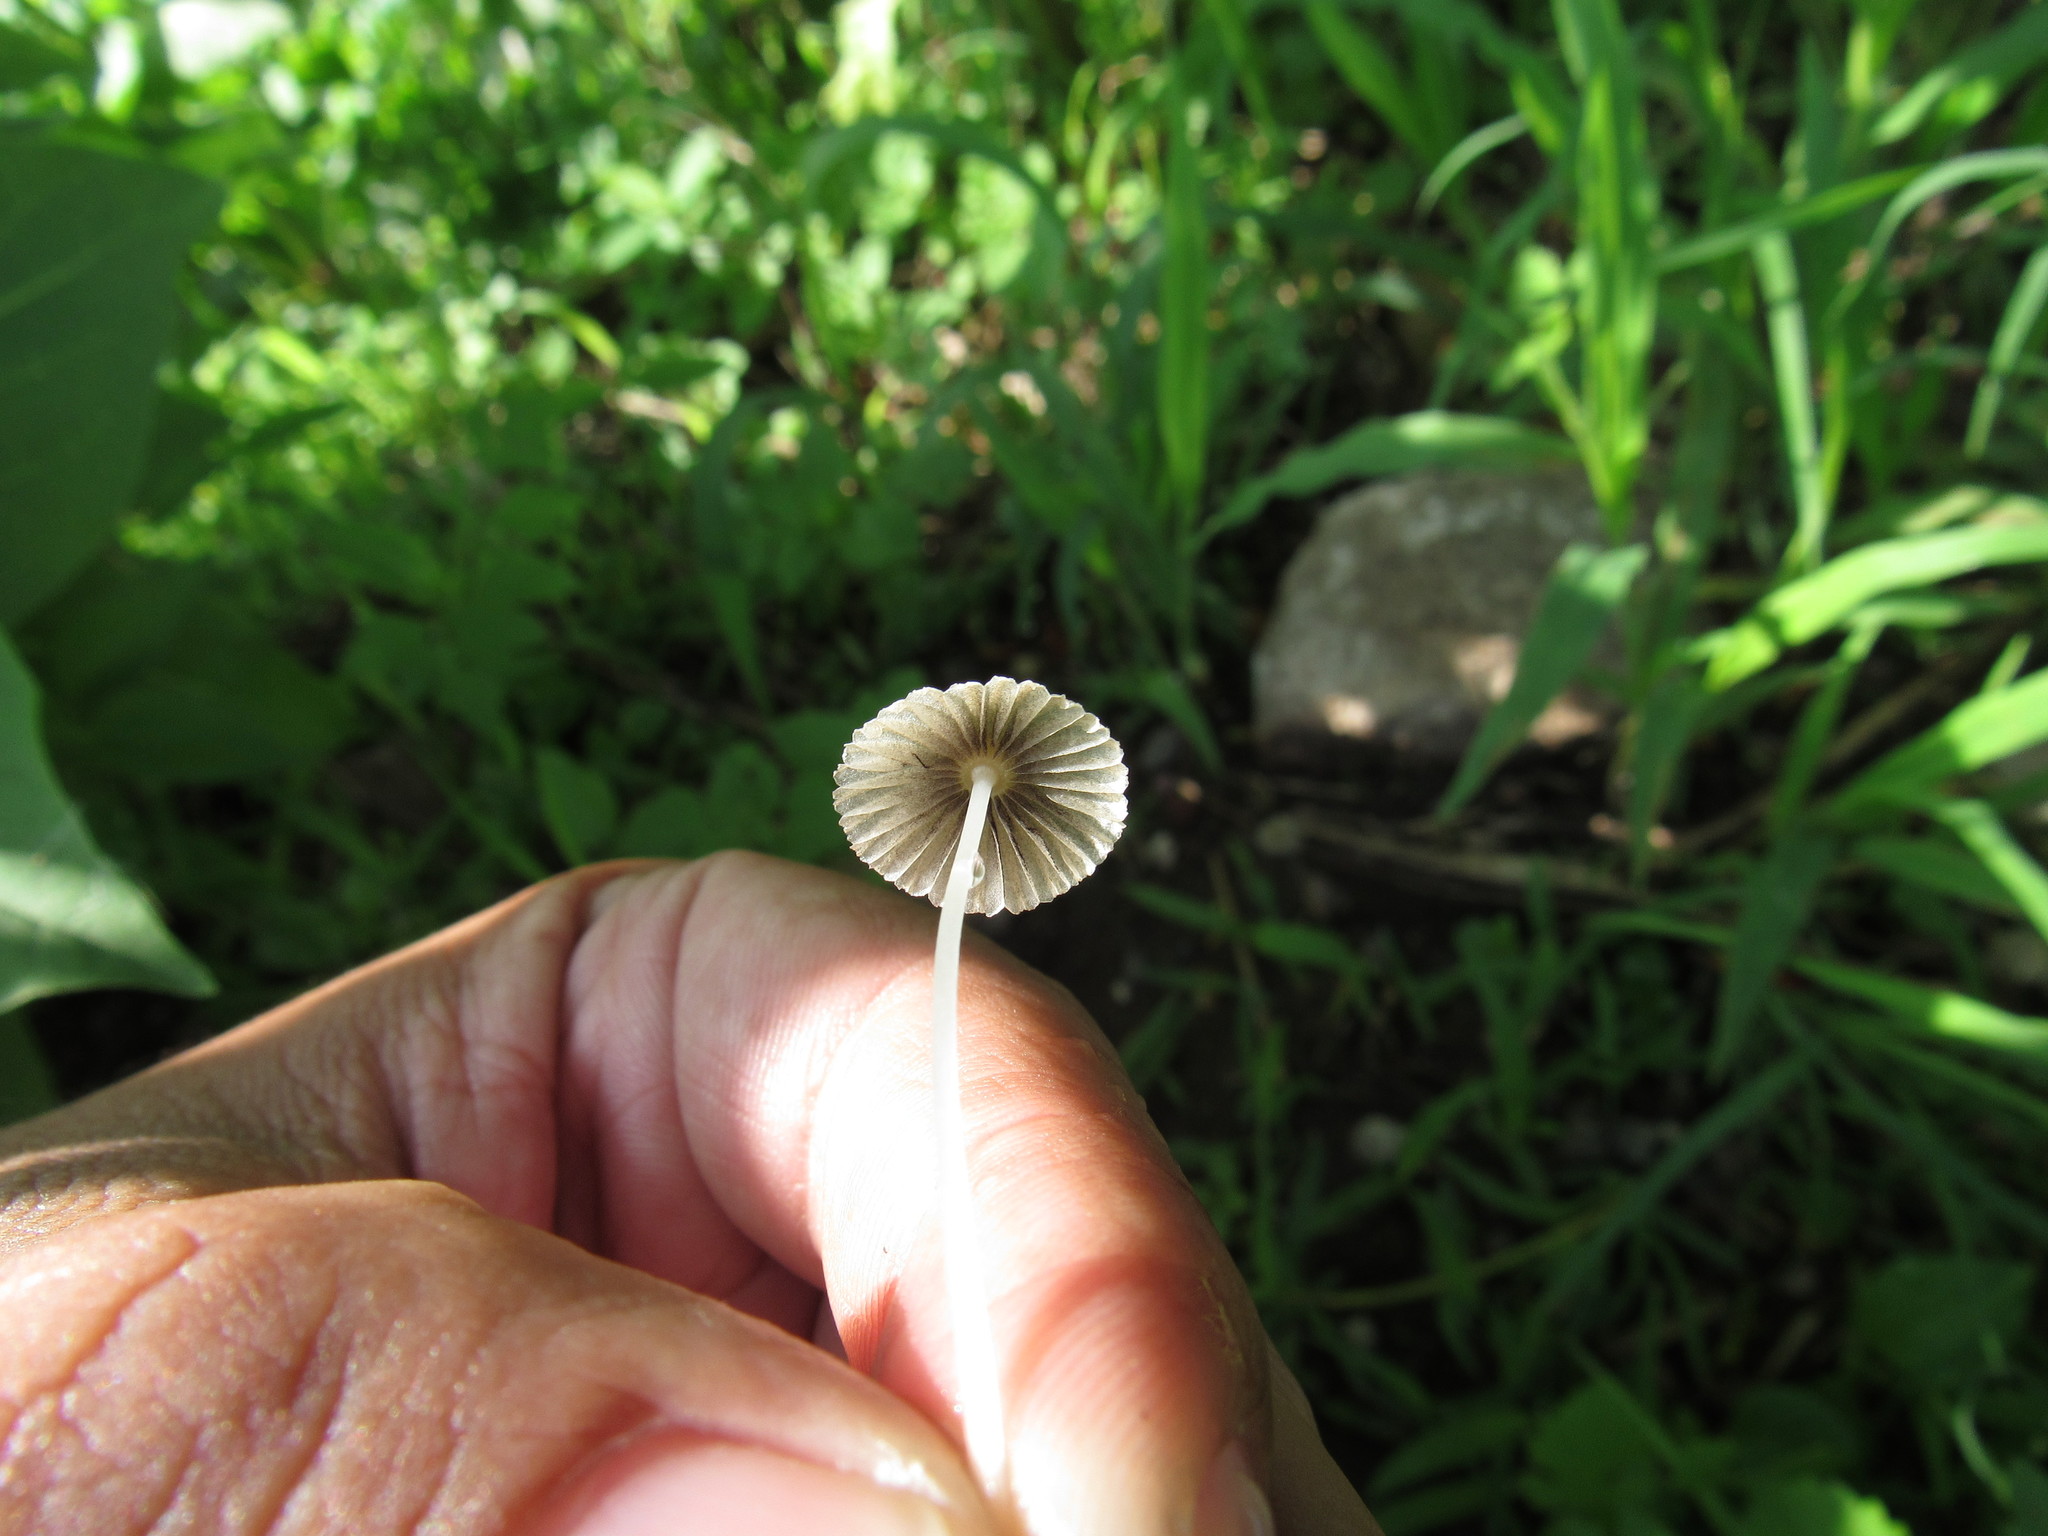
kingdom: Fungi
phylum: Basidiomycota
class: Agaricomycetes
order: Agaricales
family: Psathyrellaceae
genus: Parasola
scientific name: Parasola plicatilis
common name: Pleated inkcap
